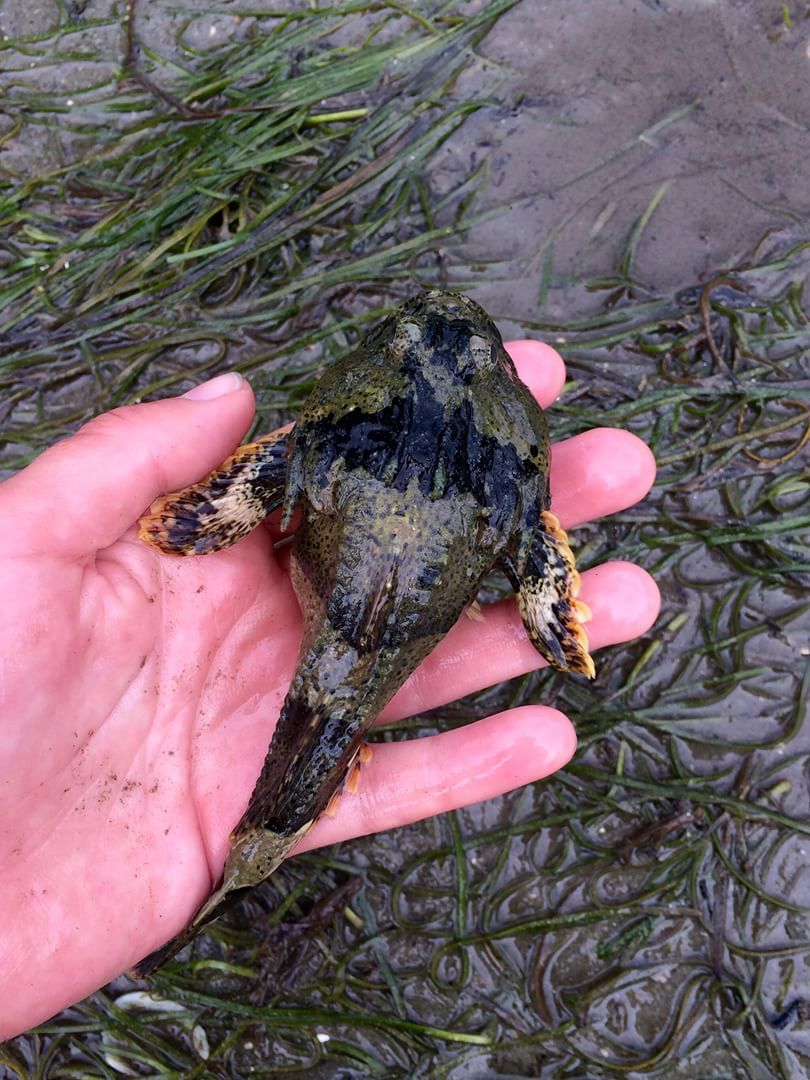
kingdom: Animalia
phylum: Chordata
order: Scorpaeniformes
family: Cottidae
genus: Enophrys
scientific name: Enophrys bison
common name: Buffalo sculpin
